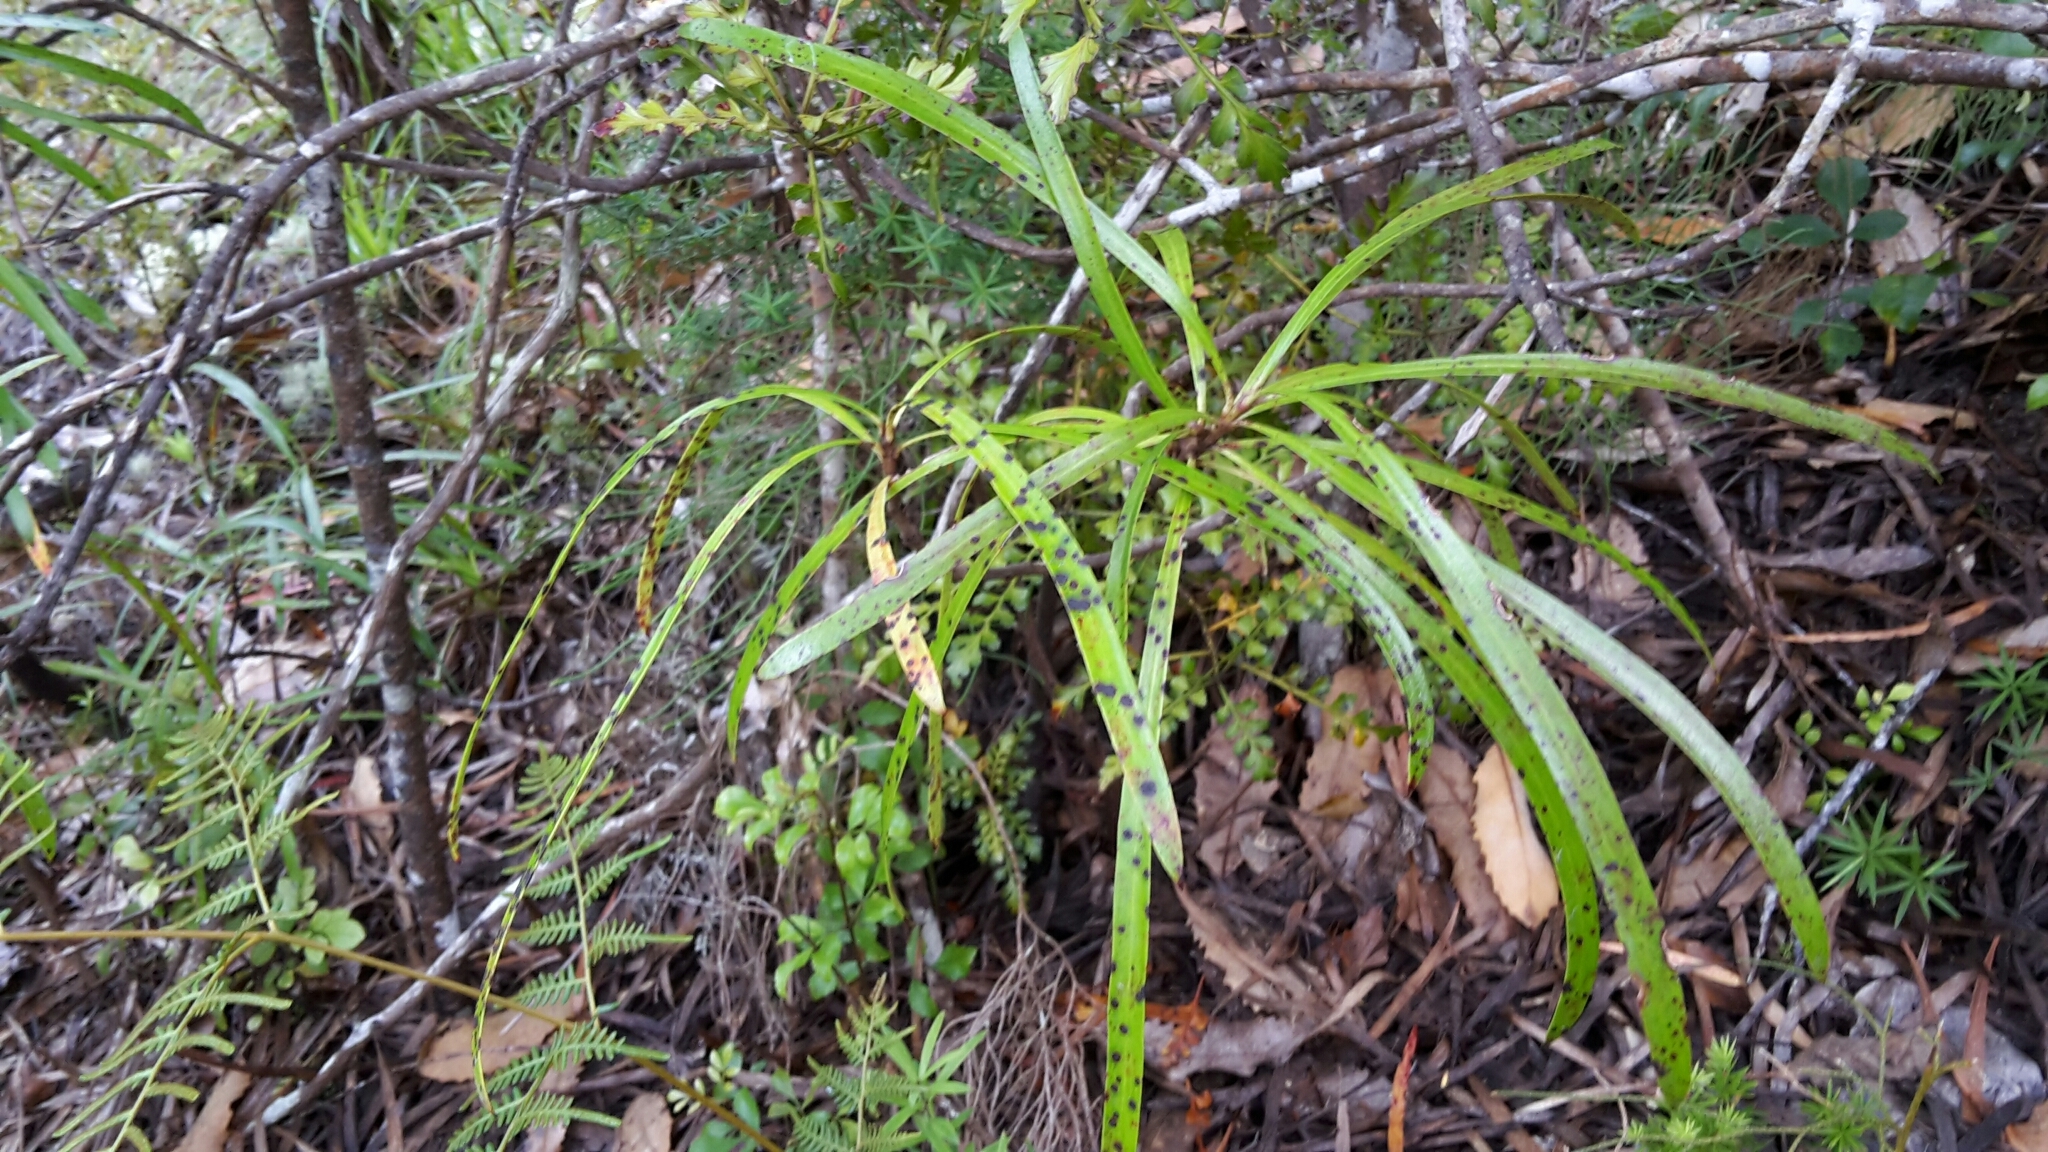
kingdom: Plantae
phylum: Tracheophyta
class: Magnoliopsida
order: Proteales
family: Proteaceae
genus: Toronia
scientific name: Toronia toru
